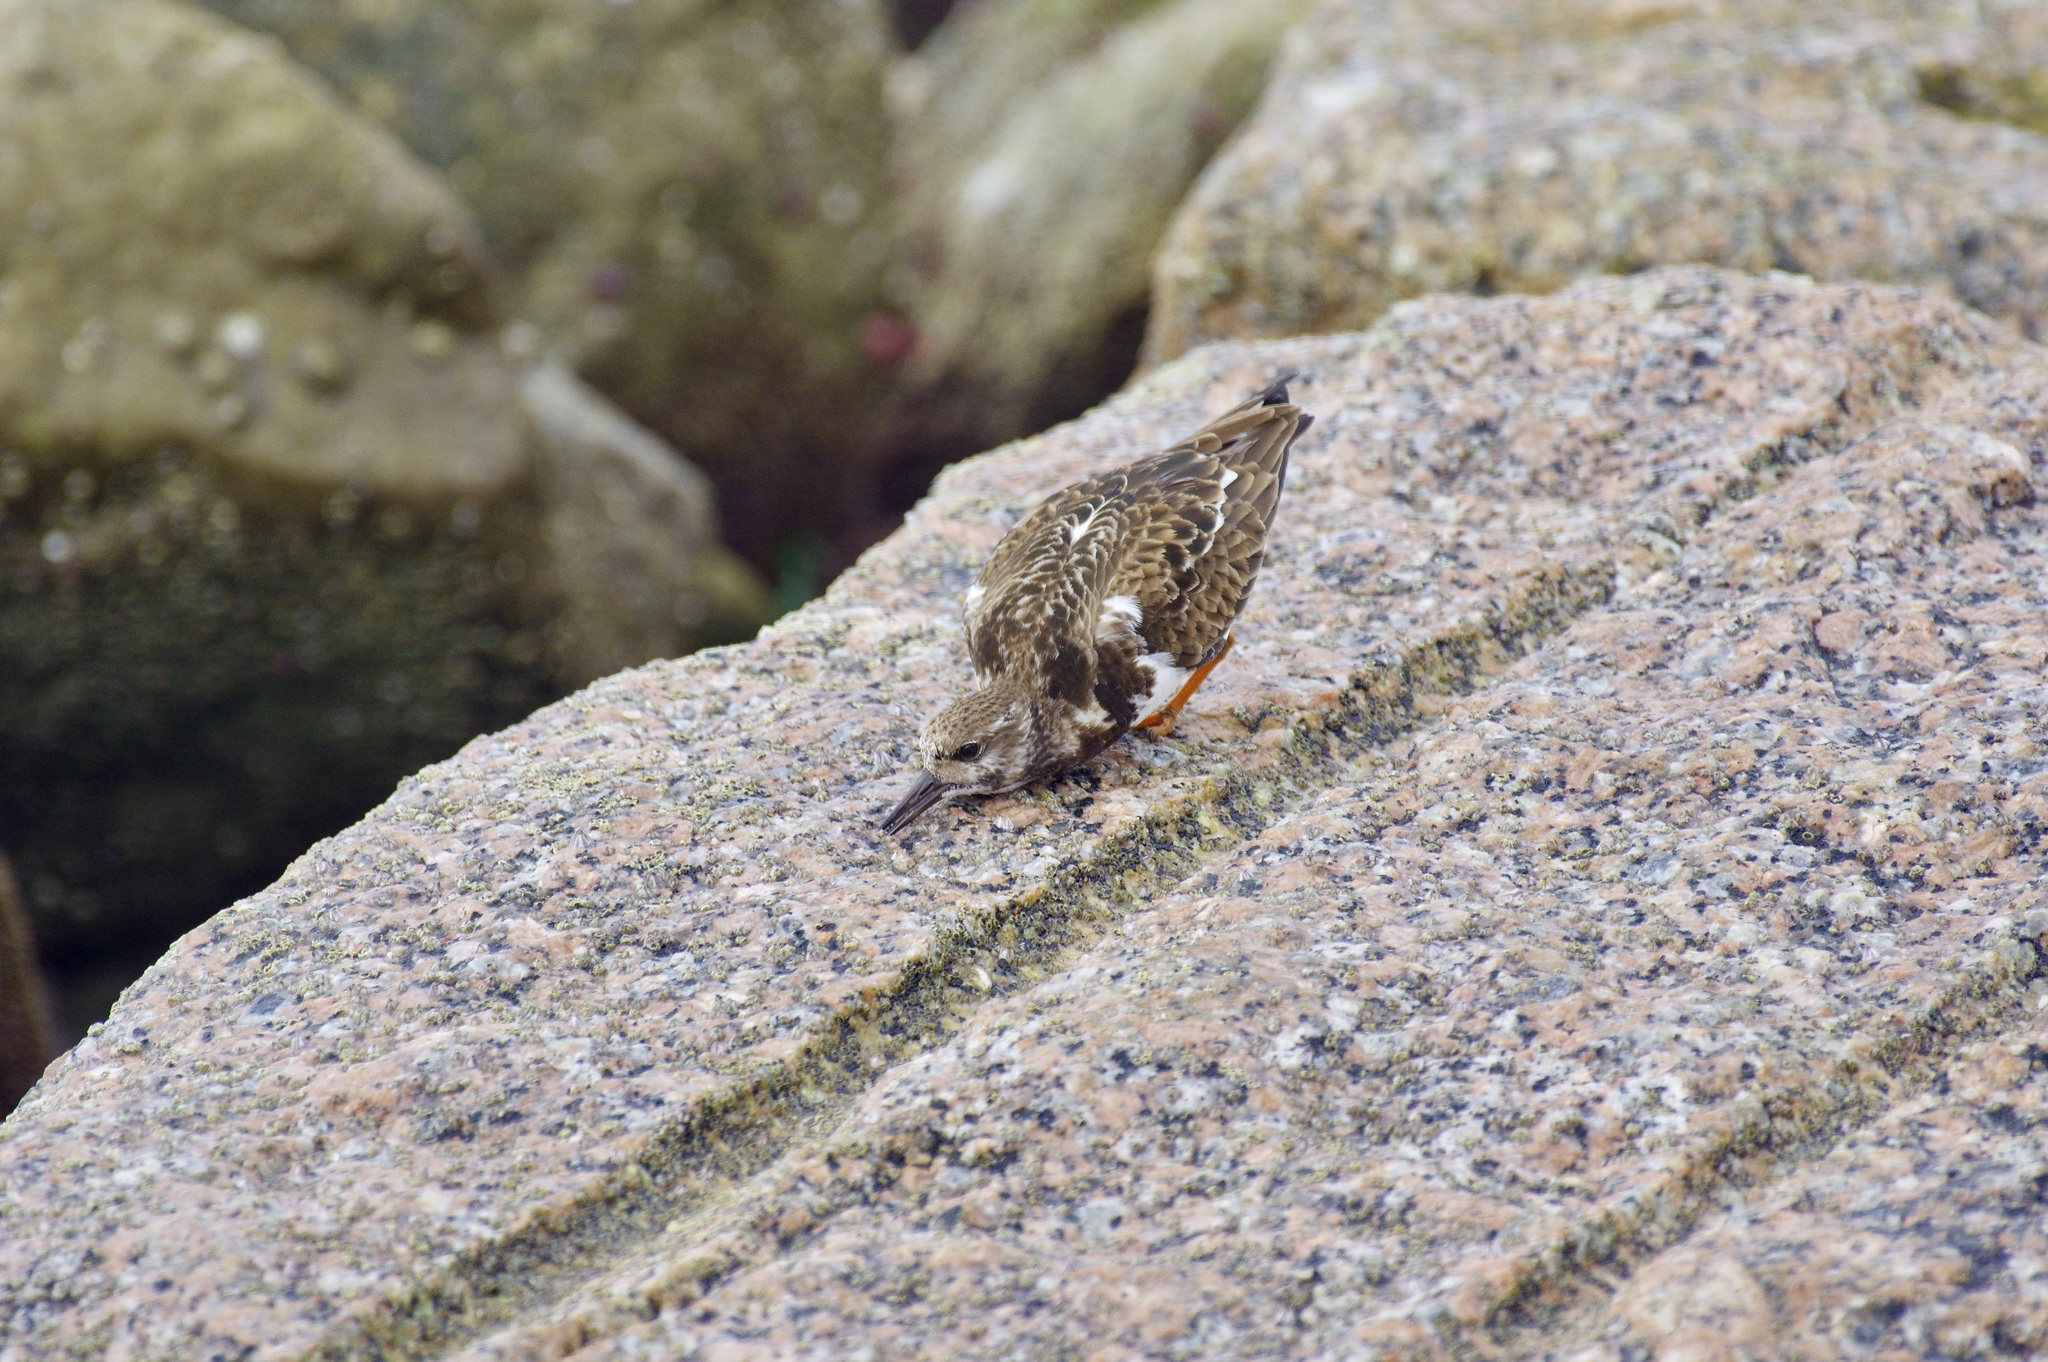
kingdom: Animalia
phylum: Chordata
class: Aves
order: Charadriiformes
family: Scolopacidae
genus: Arenaria
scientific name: Arenaria interpres
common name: Ruddy turnstone
